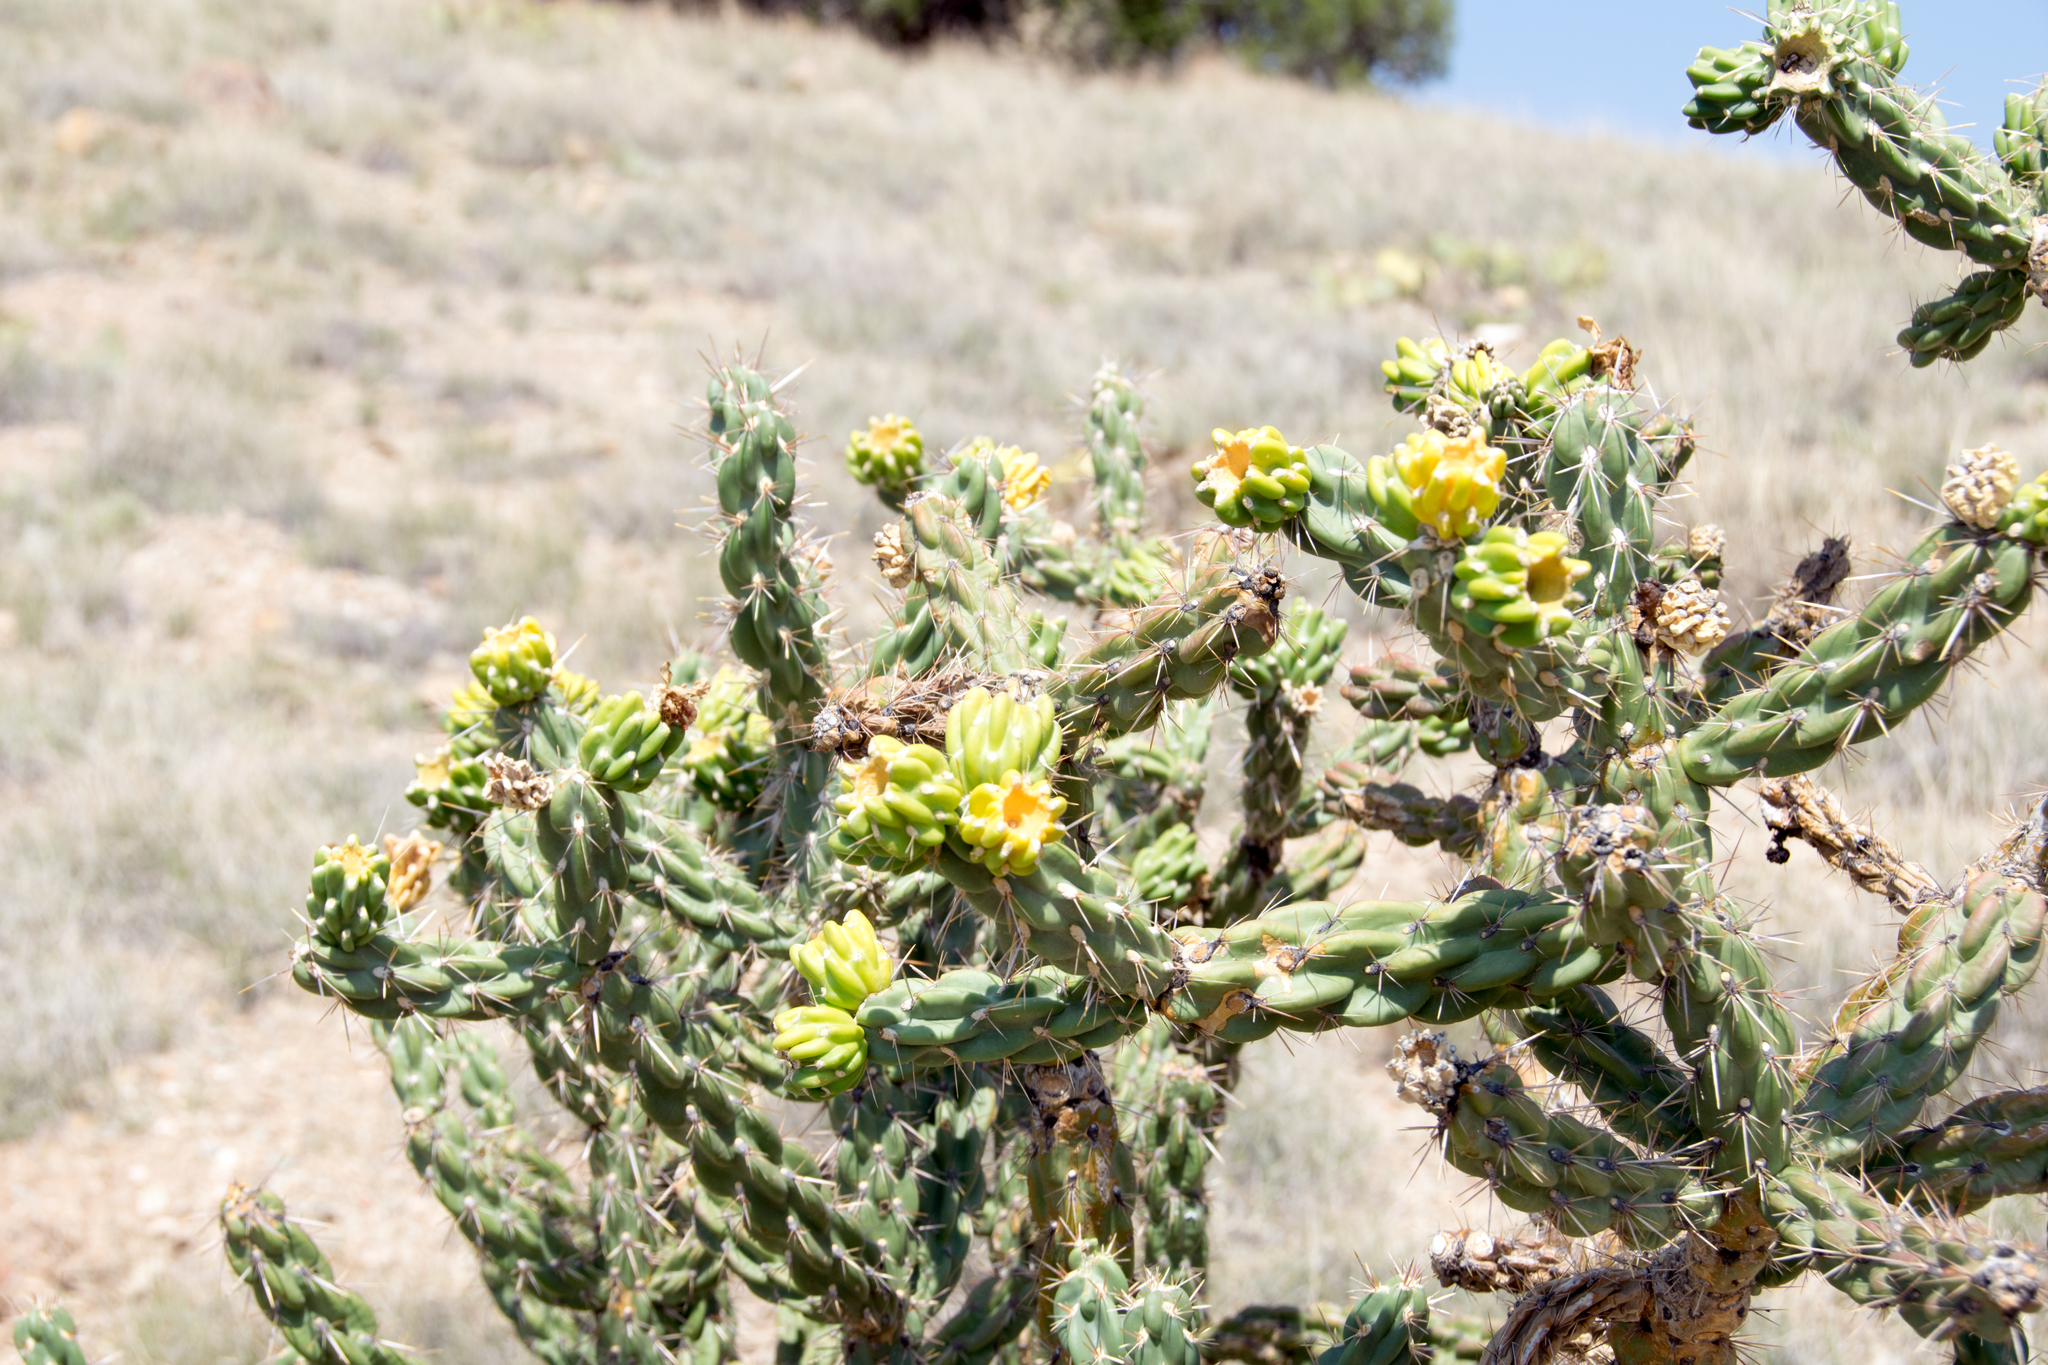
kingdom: Plantae
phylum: Tracheophyta
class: Magnoliopsida
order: Caryophyllales
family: Cactaceae
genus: Cylindropuntia
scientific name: Cylindropuntia imbricata
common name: Candelabrum cactus
